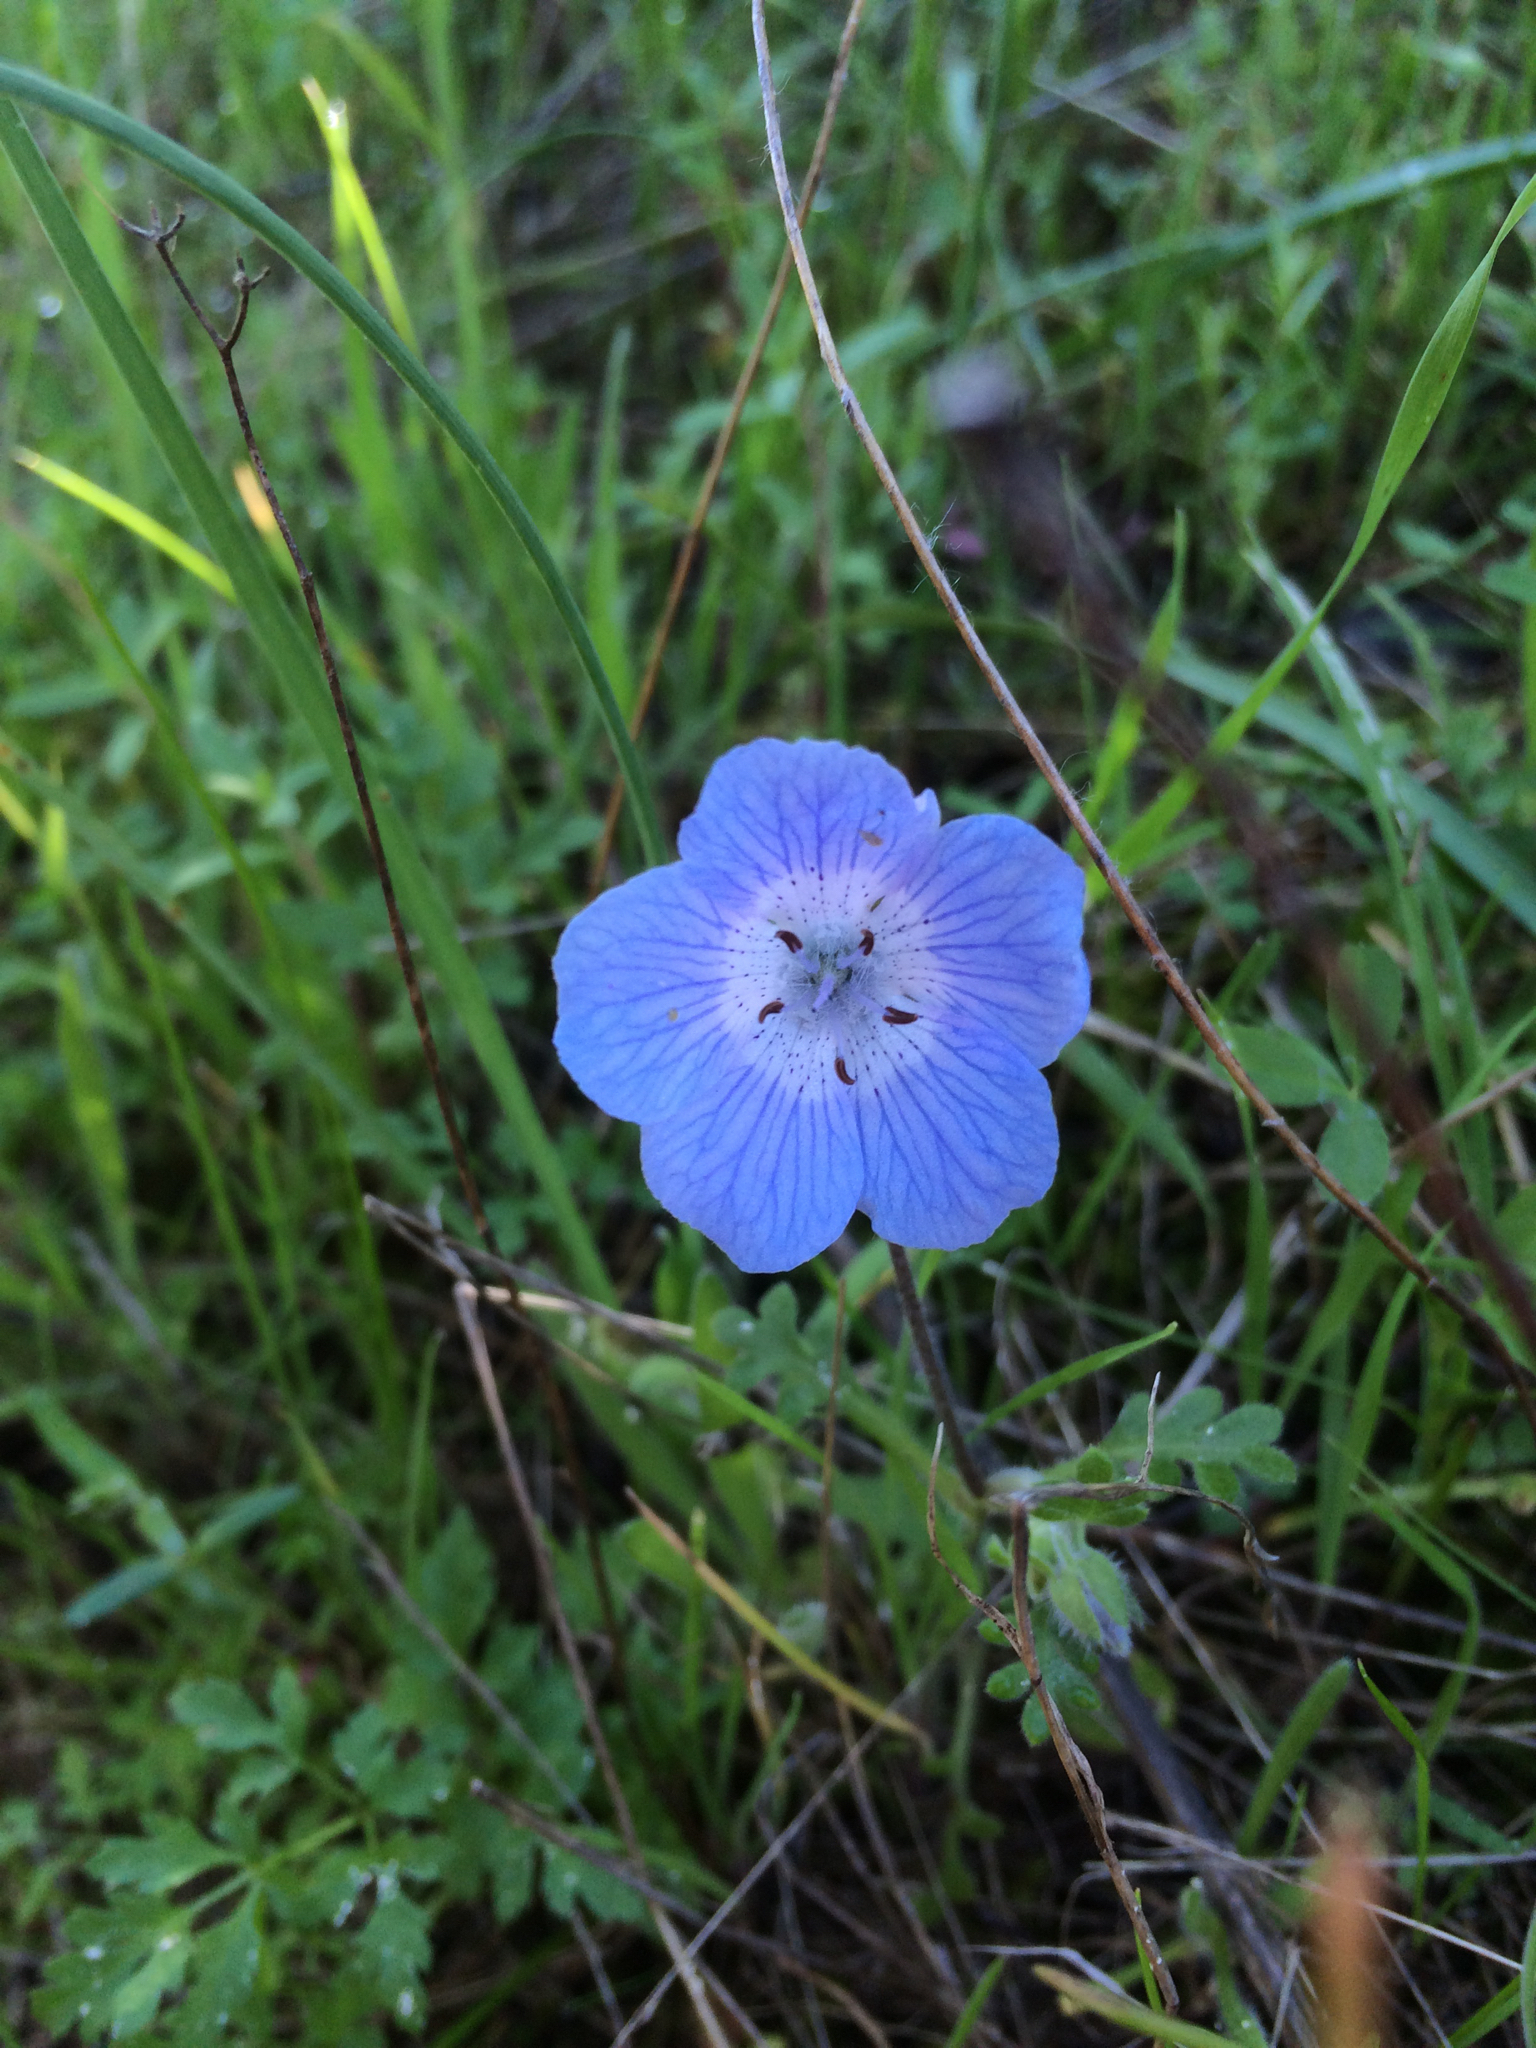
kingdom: Plantae
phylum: Tracheophyta
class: Magnoliopsida
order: Boraginales
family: Hydrophyllaceae
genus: Nemophila
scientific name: Nemophila menziesii
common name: Baby's-blue-eyes
